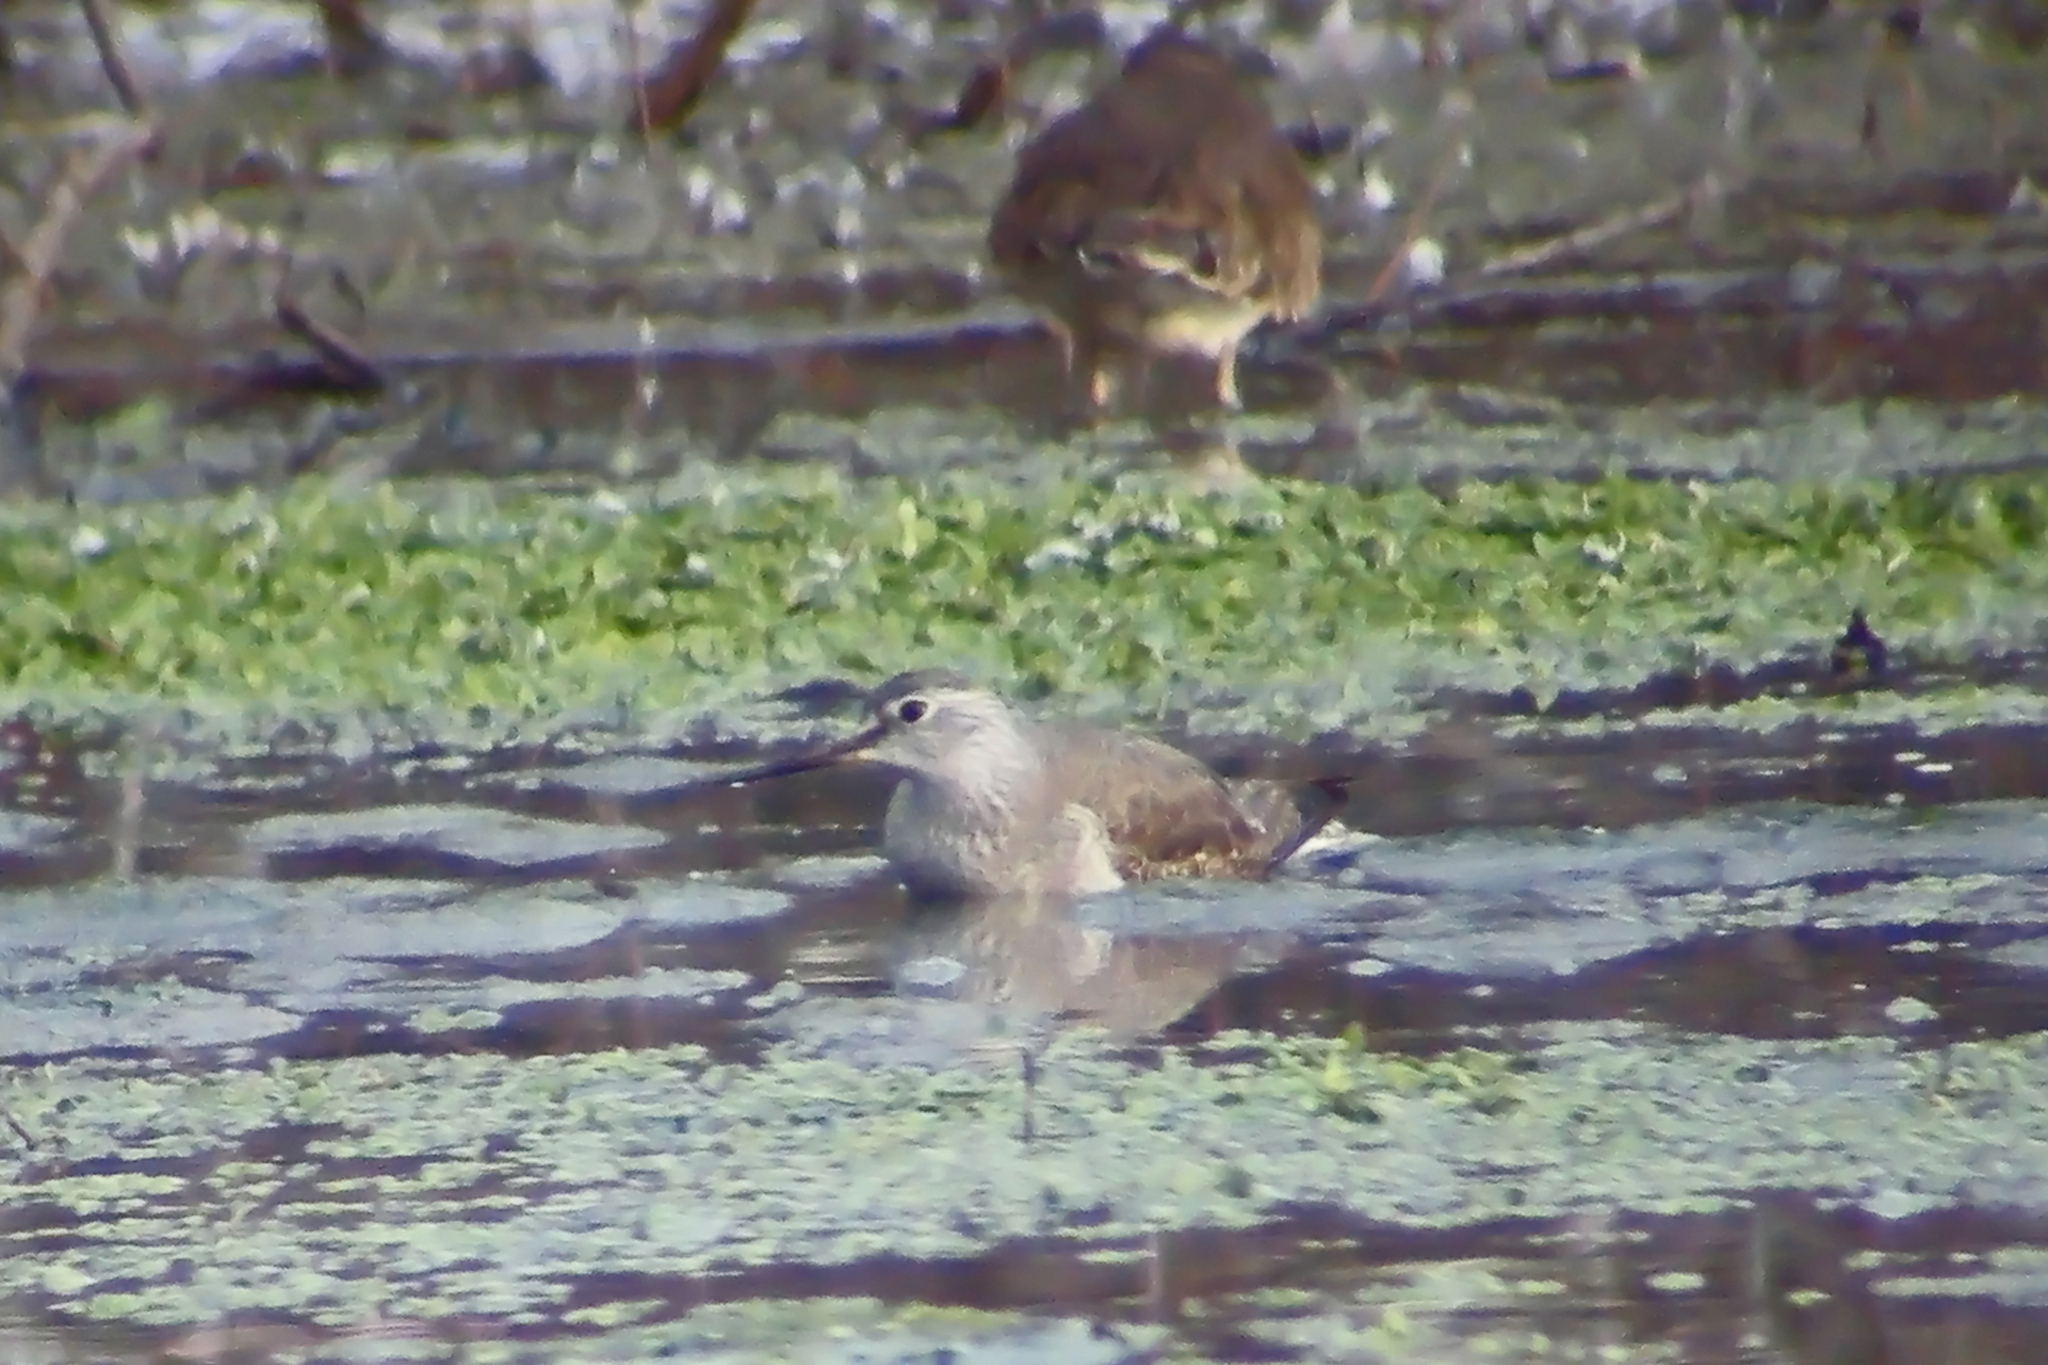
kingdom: Animalia
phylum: Chordata
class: Aves
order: Charadriiformes
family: Scolopacidae
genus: Tringa
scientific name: Tringa flavipes
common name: Lesser yellowlegs
